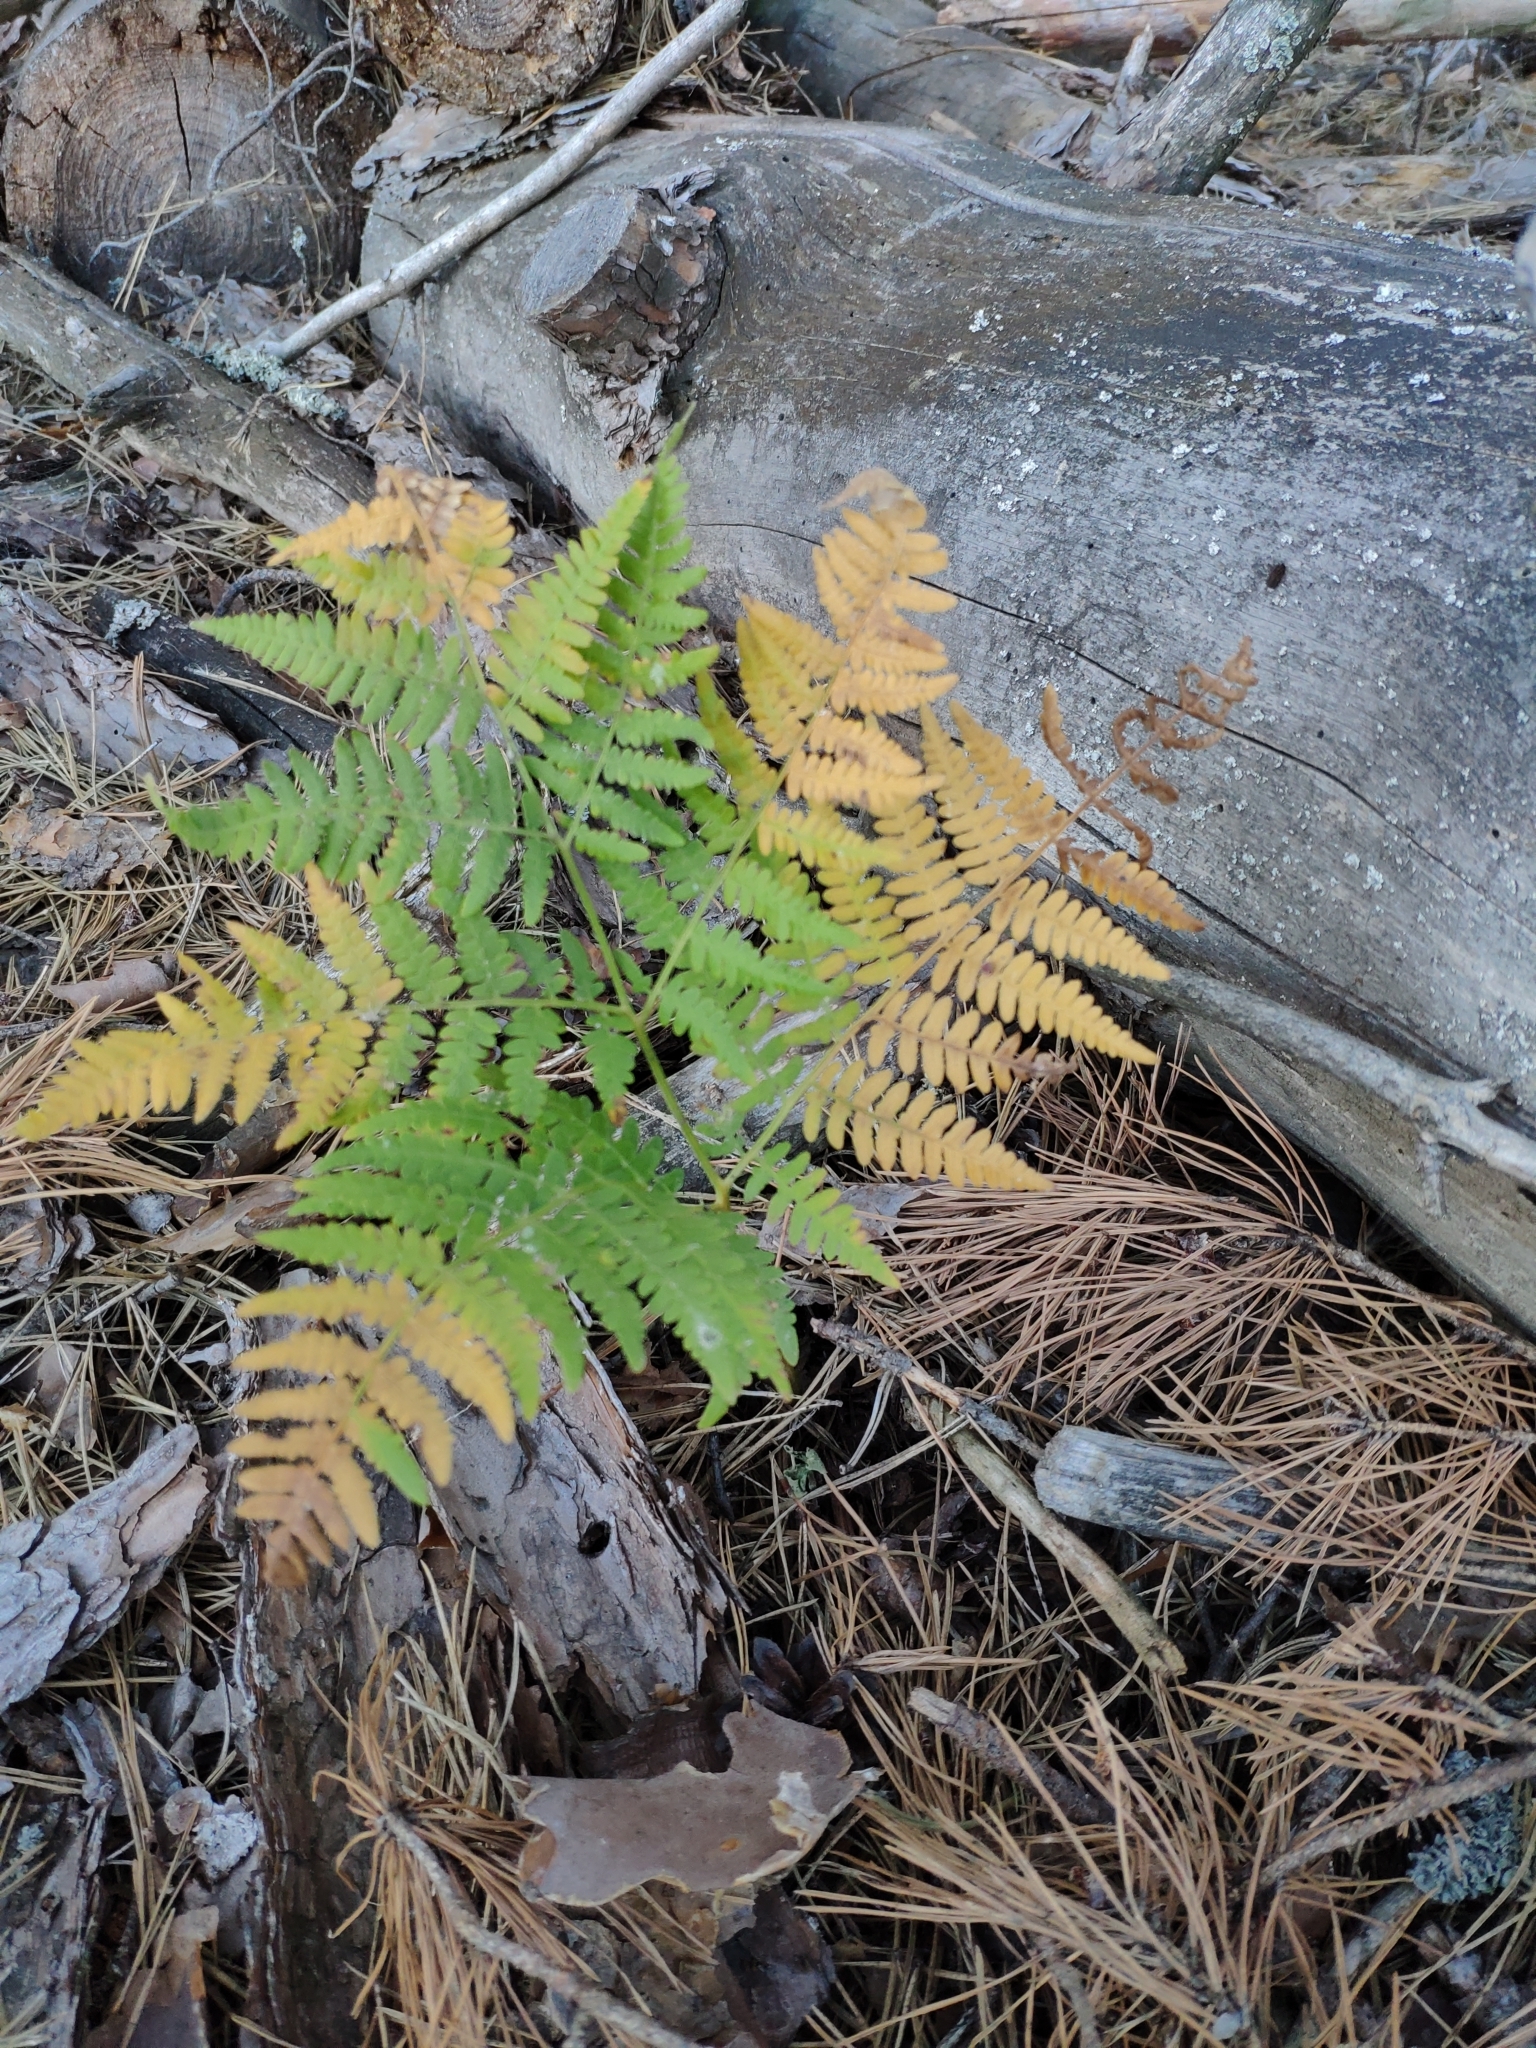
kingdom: Plantae
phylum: Tracheophyta
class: Polypodiopsida
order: Polypodiales
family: Dennstaedtiaceae
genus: Pteridium
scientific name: Pteridium aquilinum
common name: Bracken
